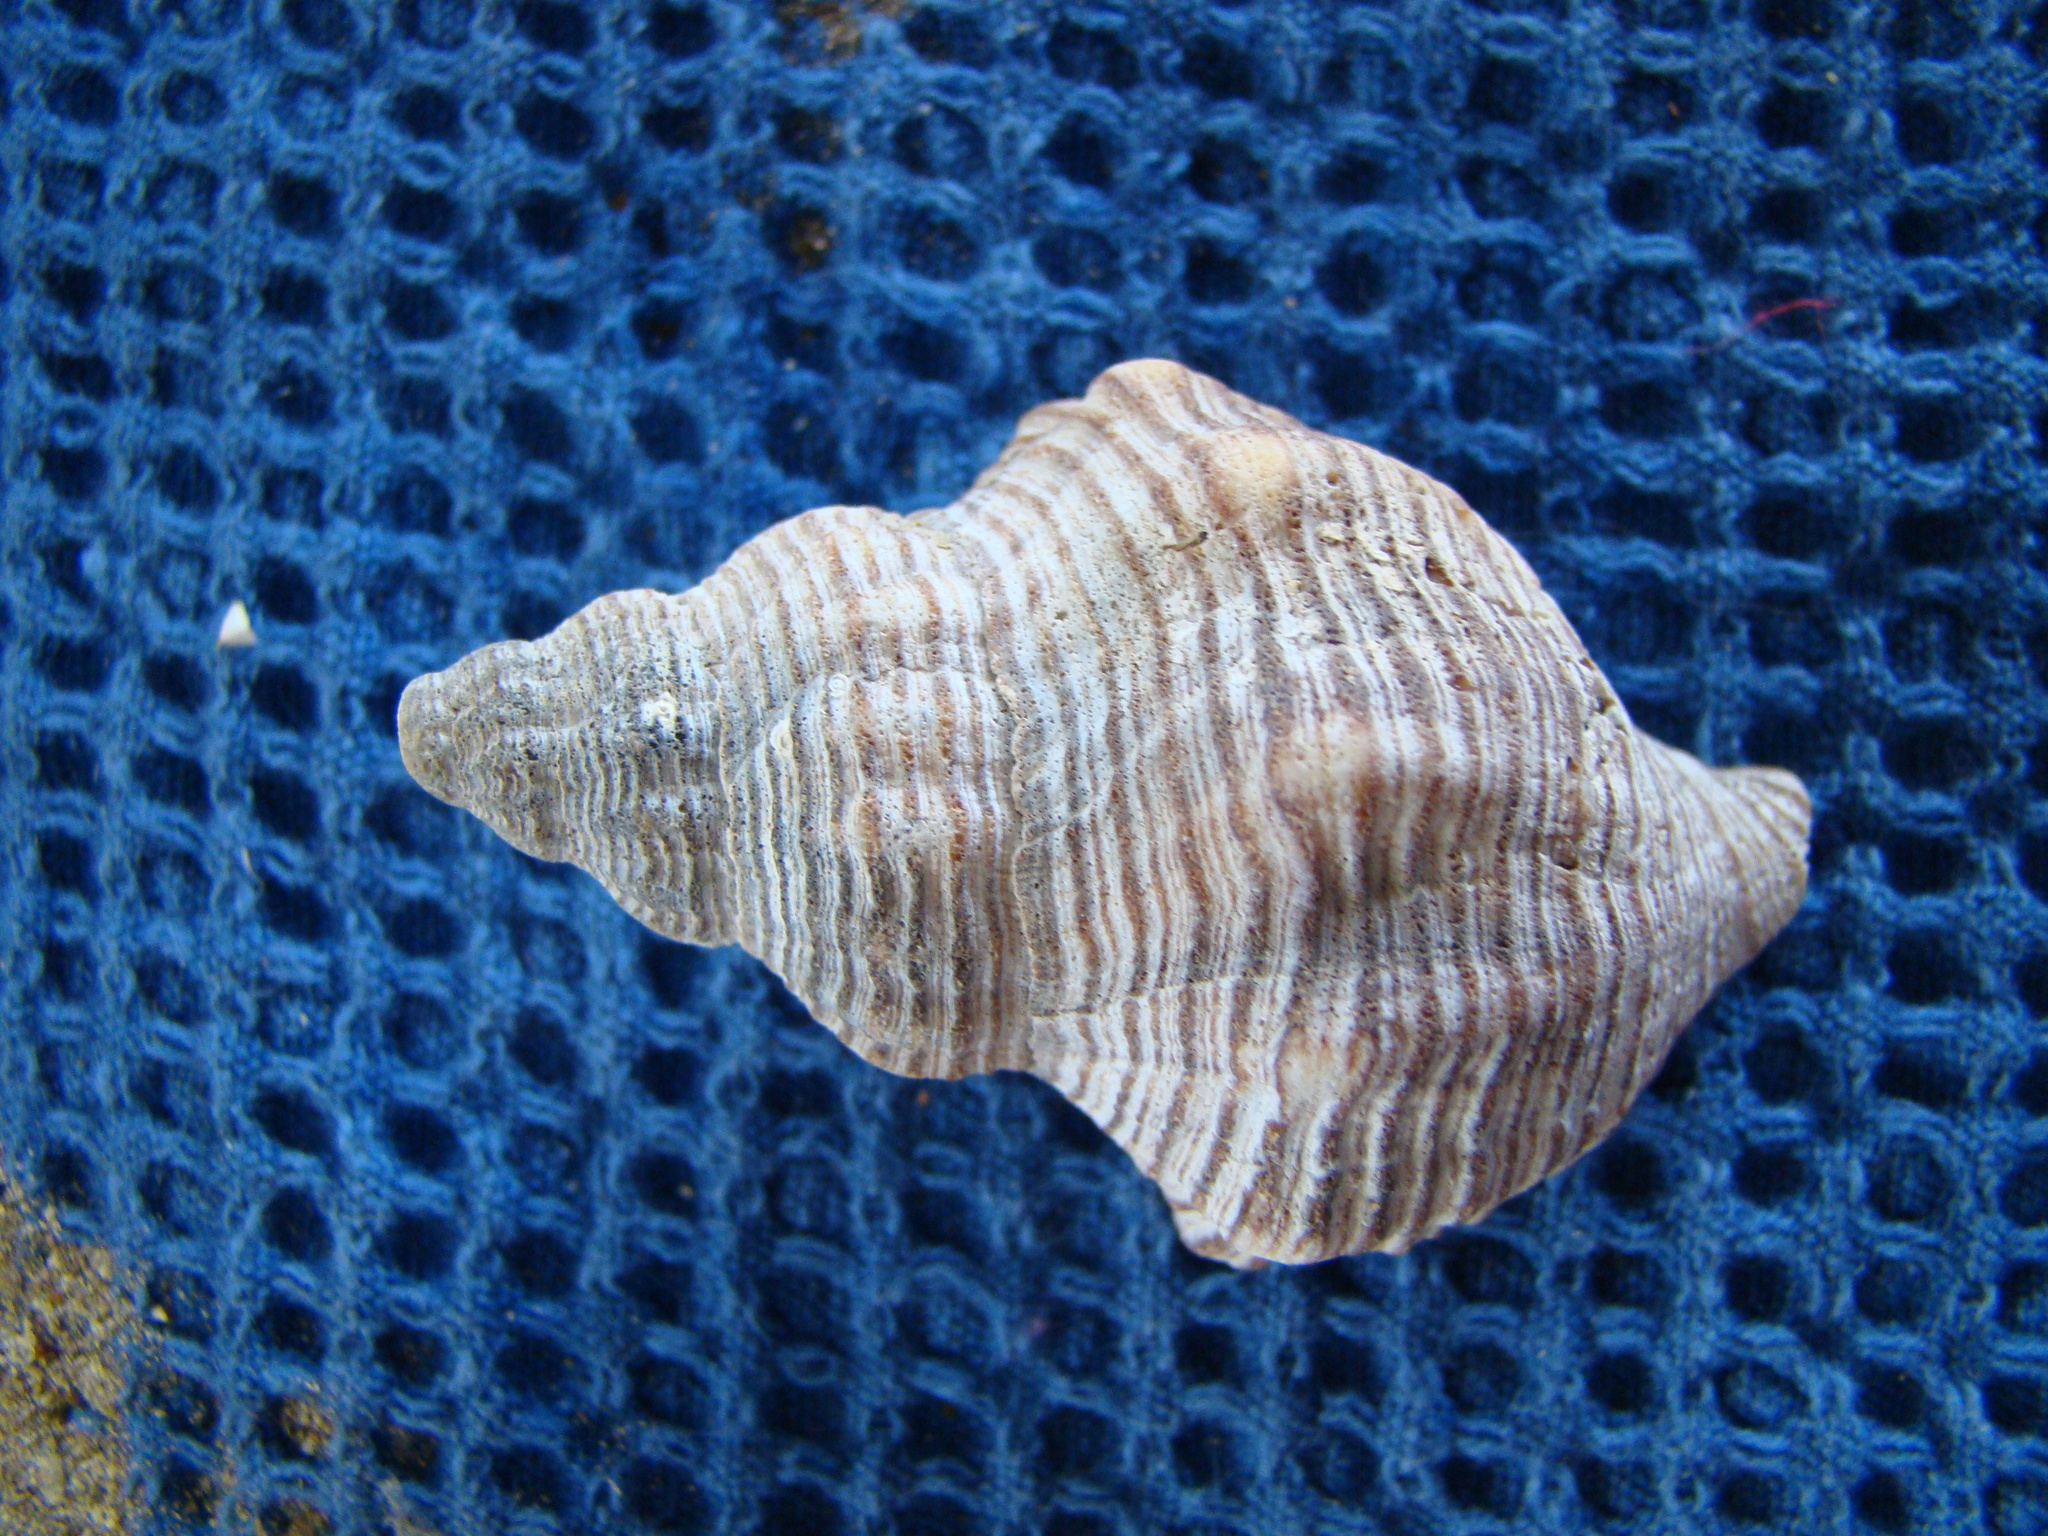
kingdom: Animalia
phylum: Mollusca
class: Gastropoda
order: Neogastropoda
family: Austrosiphonidae
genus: Penion
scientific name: Penion sulcatus
